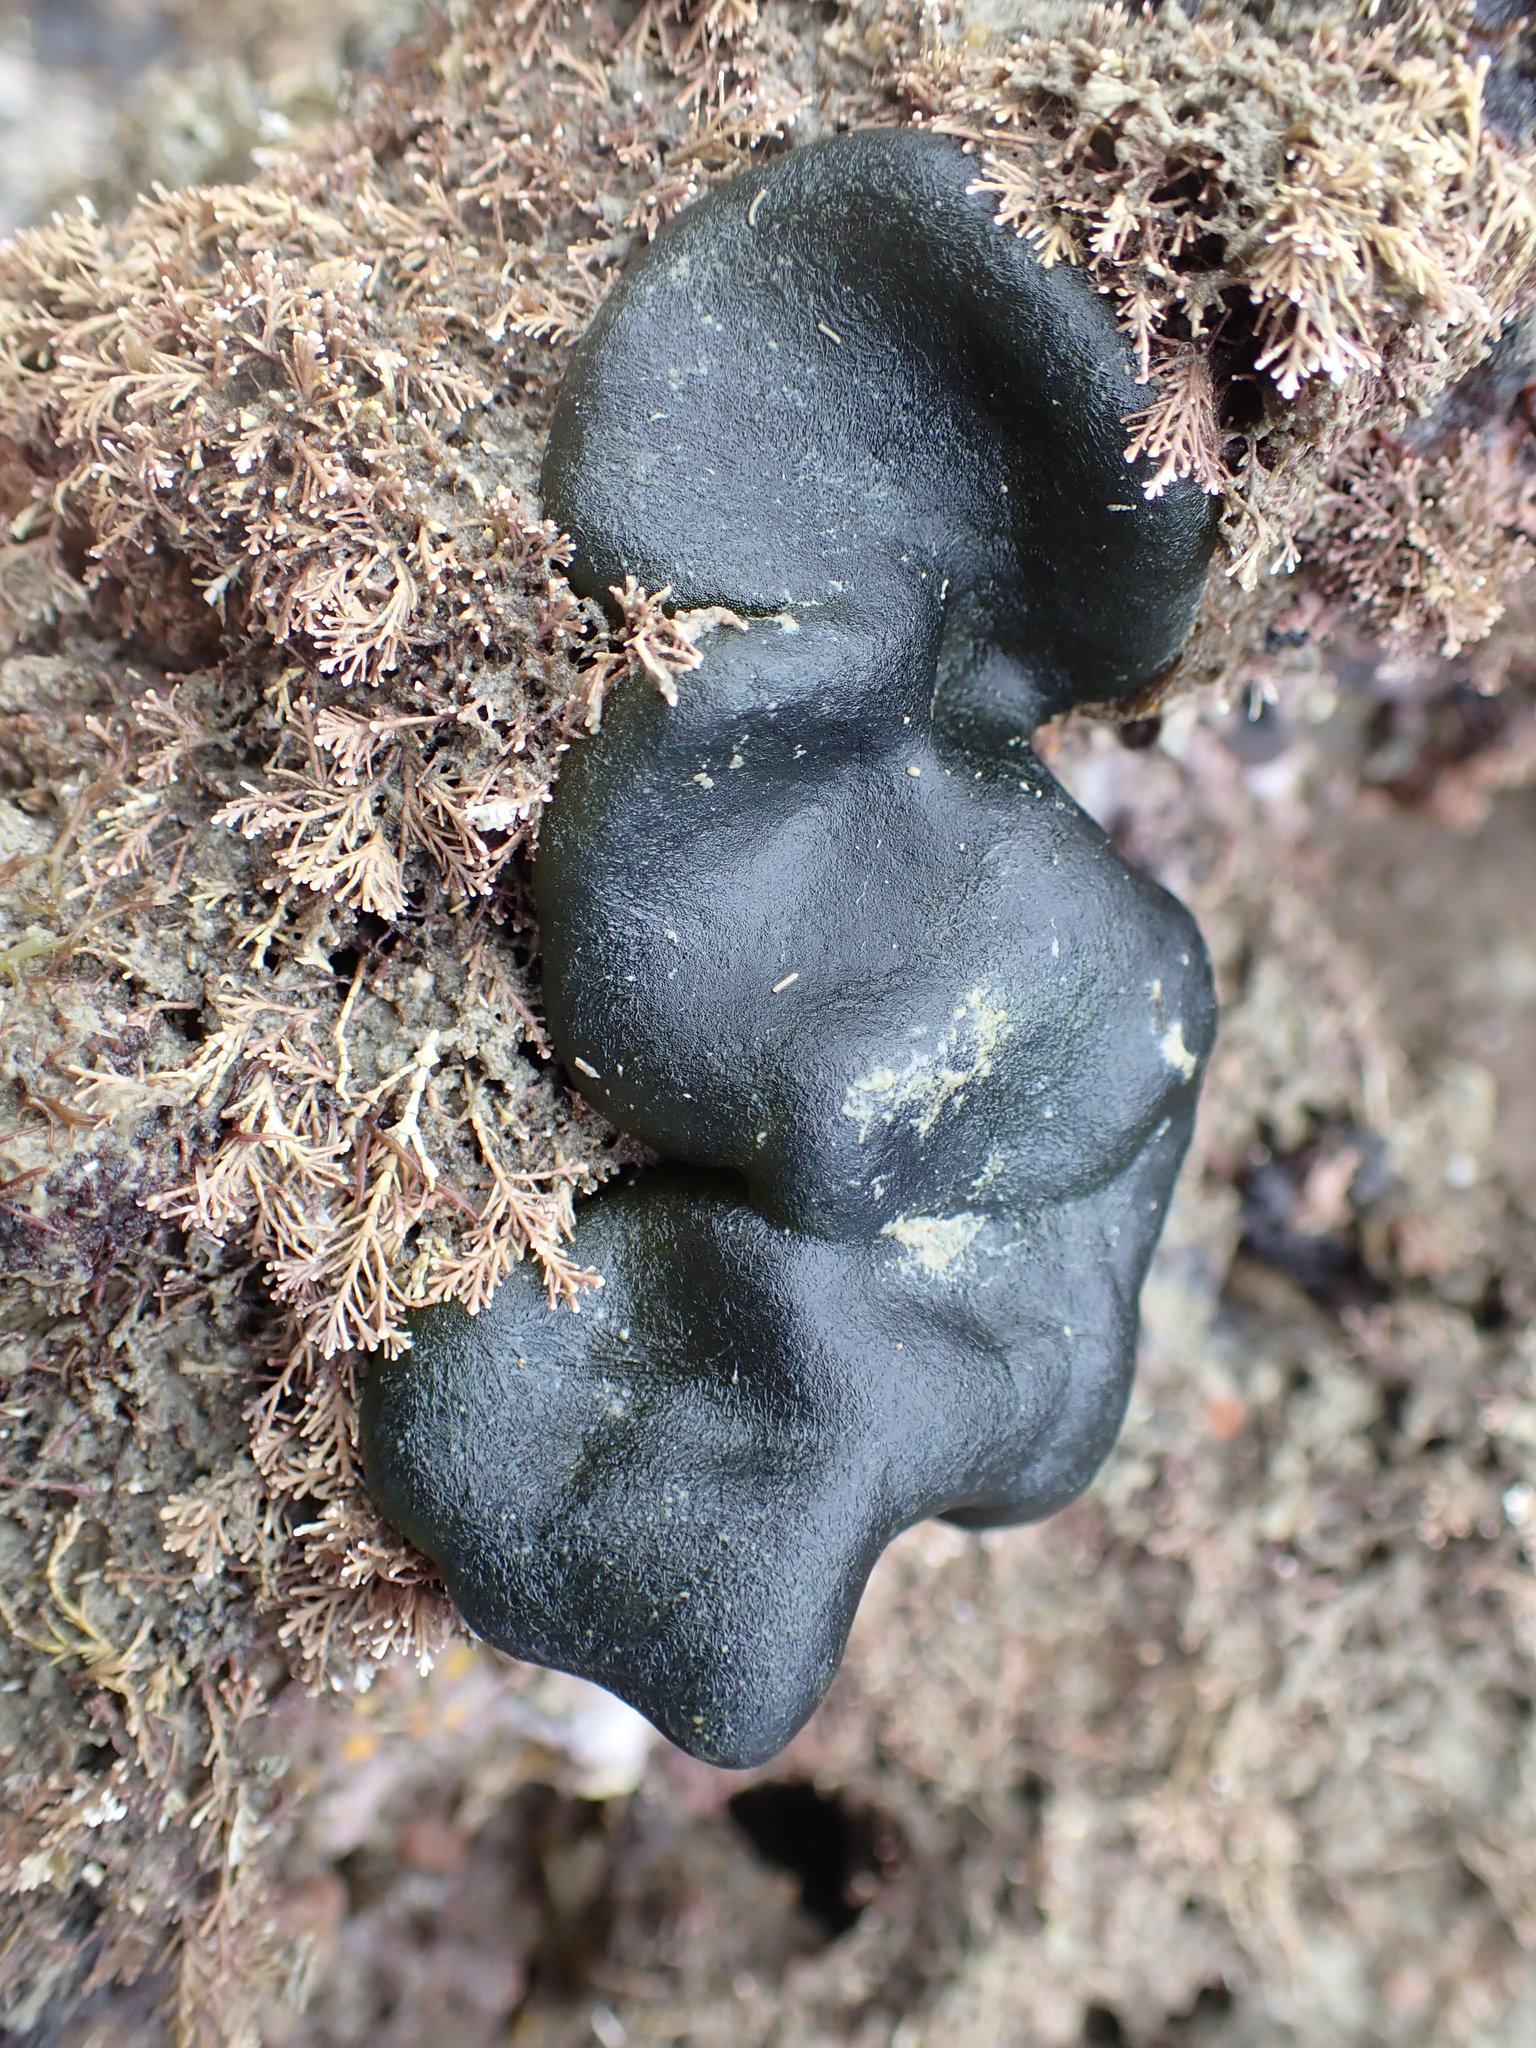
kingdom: Plantae
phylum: Chlorophyta
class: Ulvophyceae
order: Bryopsidales
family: Codiaceae
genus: Codium
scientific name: Codium convolutum
